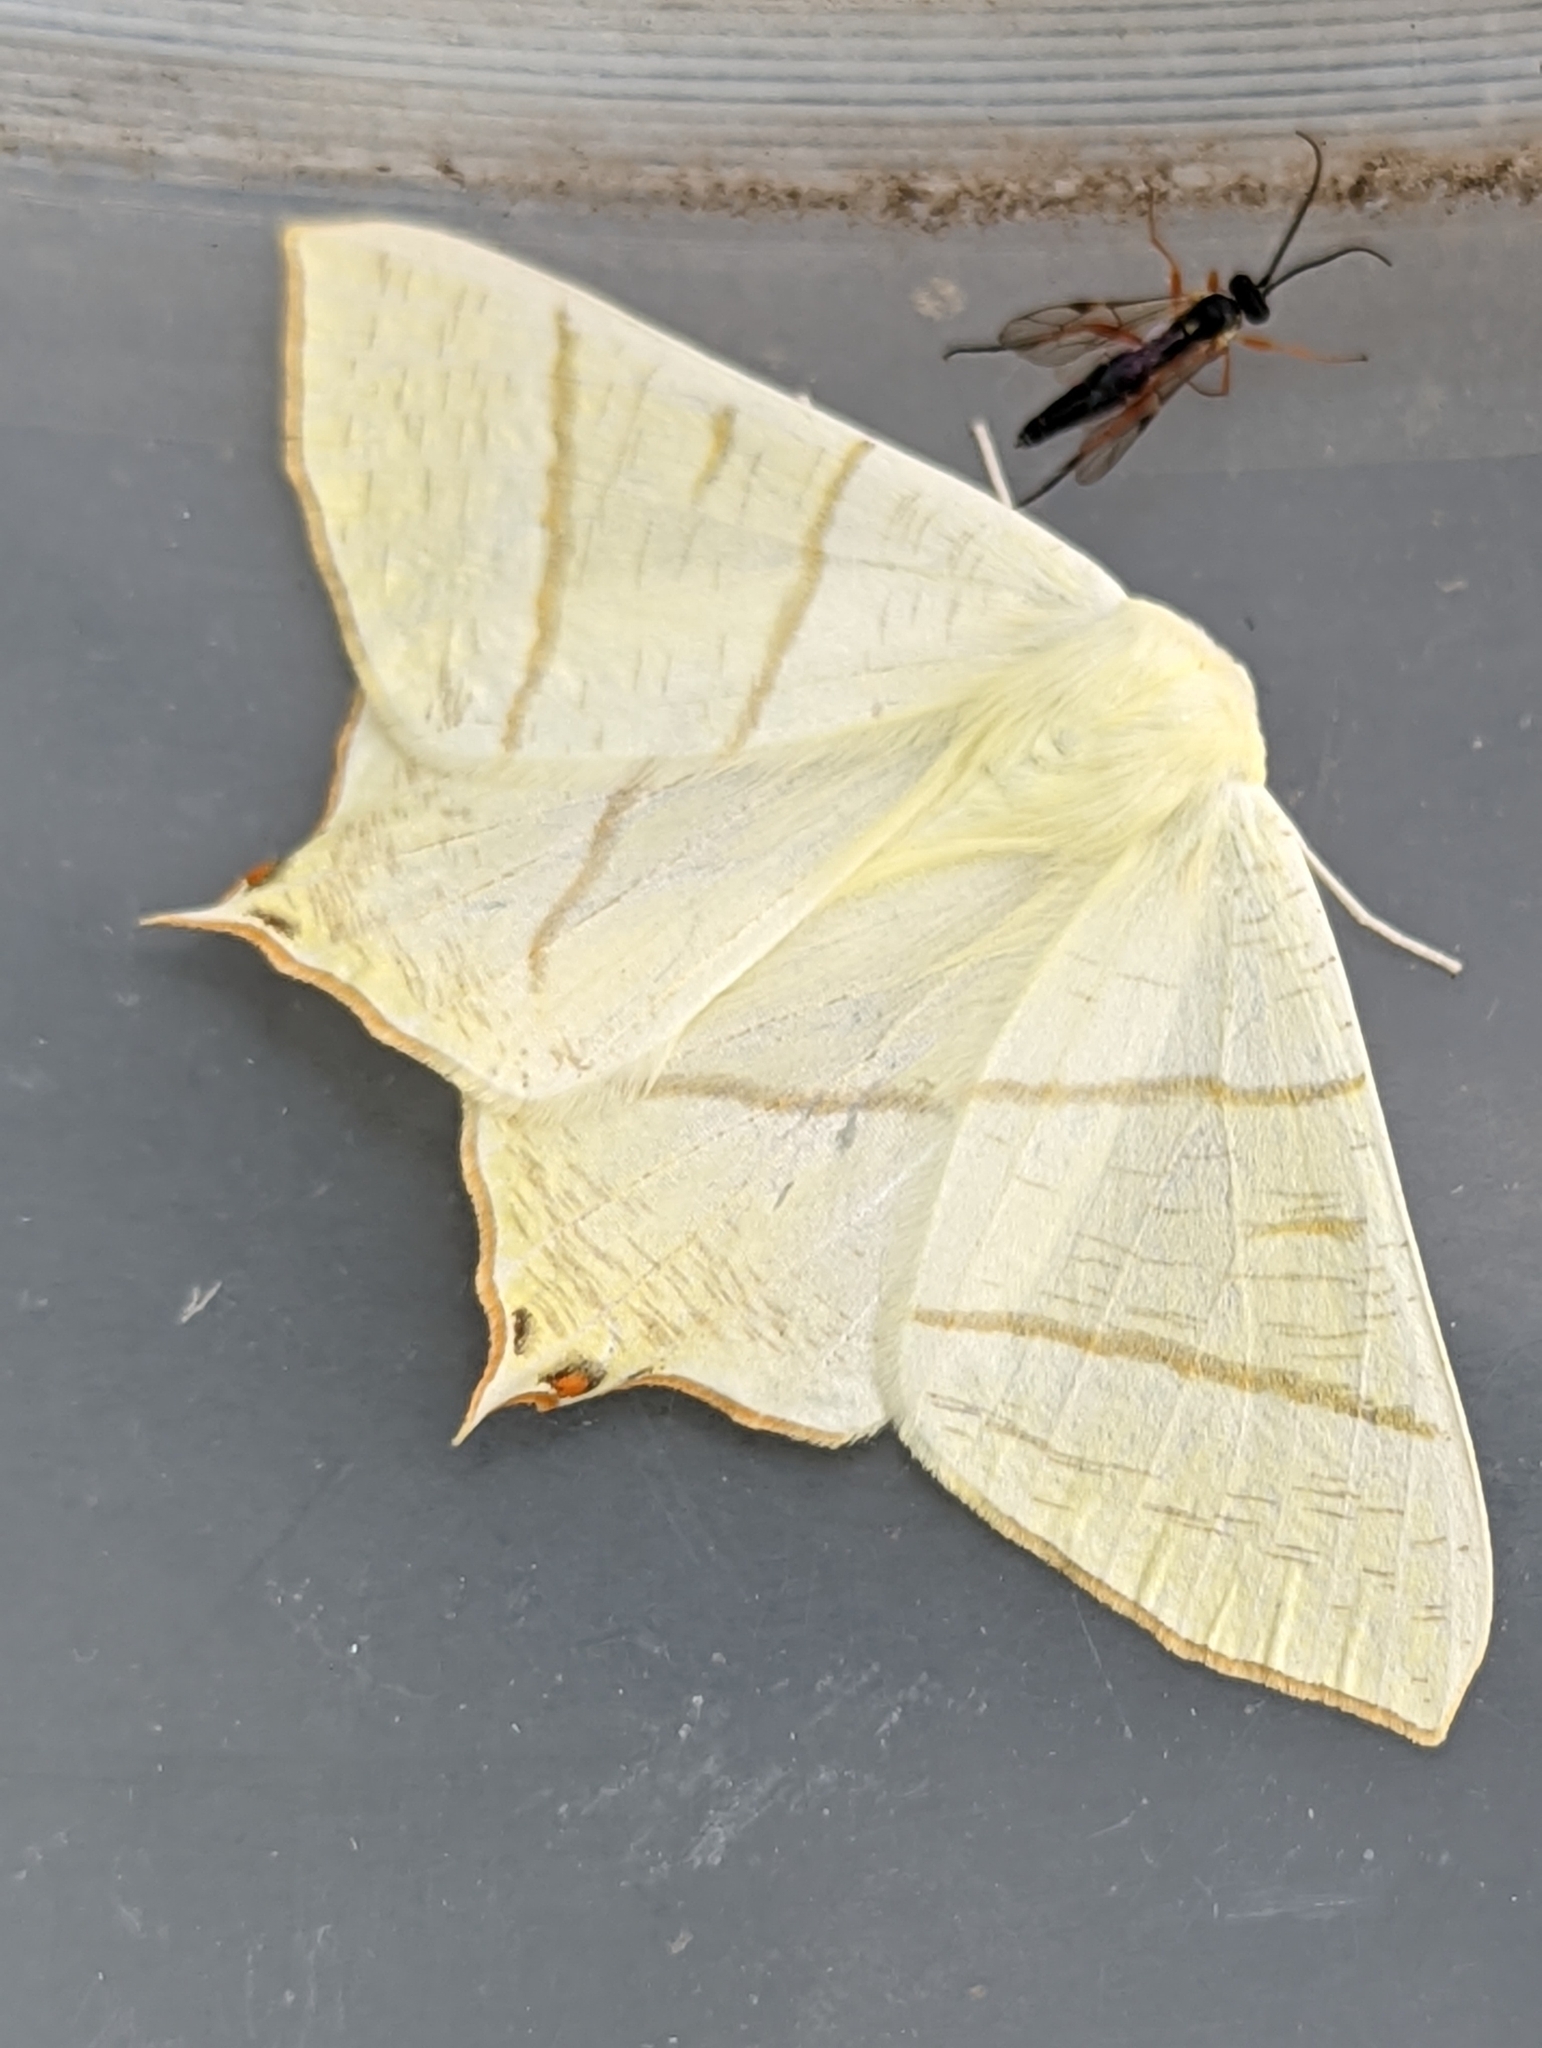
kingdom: Animalia
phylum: Arthropoda
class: Insecta
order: Lepidoptera
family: Geometridae
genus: Ourapteryx
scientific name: Ourapteryx sambucaria
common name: Swallow-tailed moth
